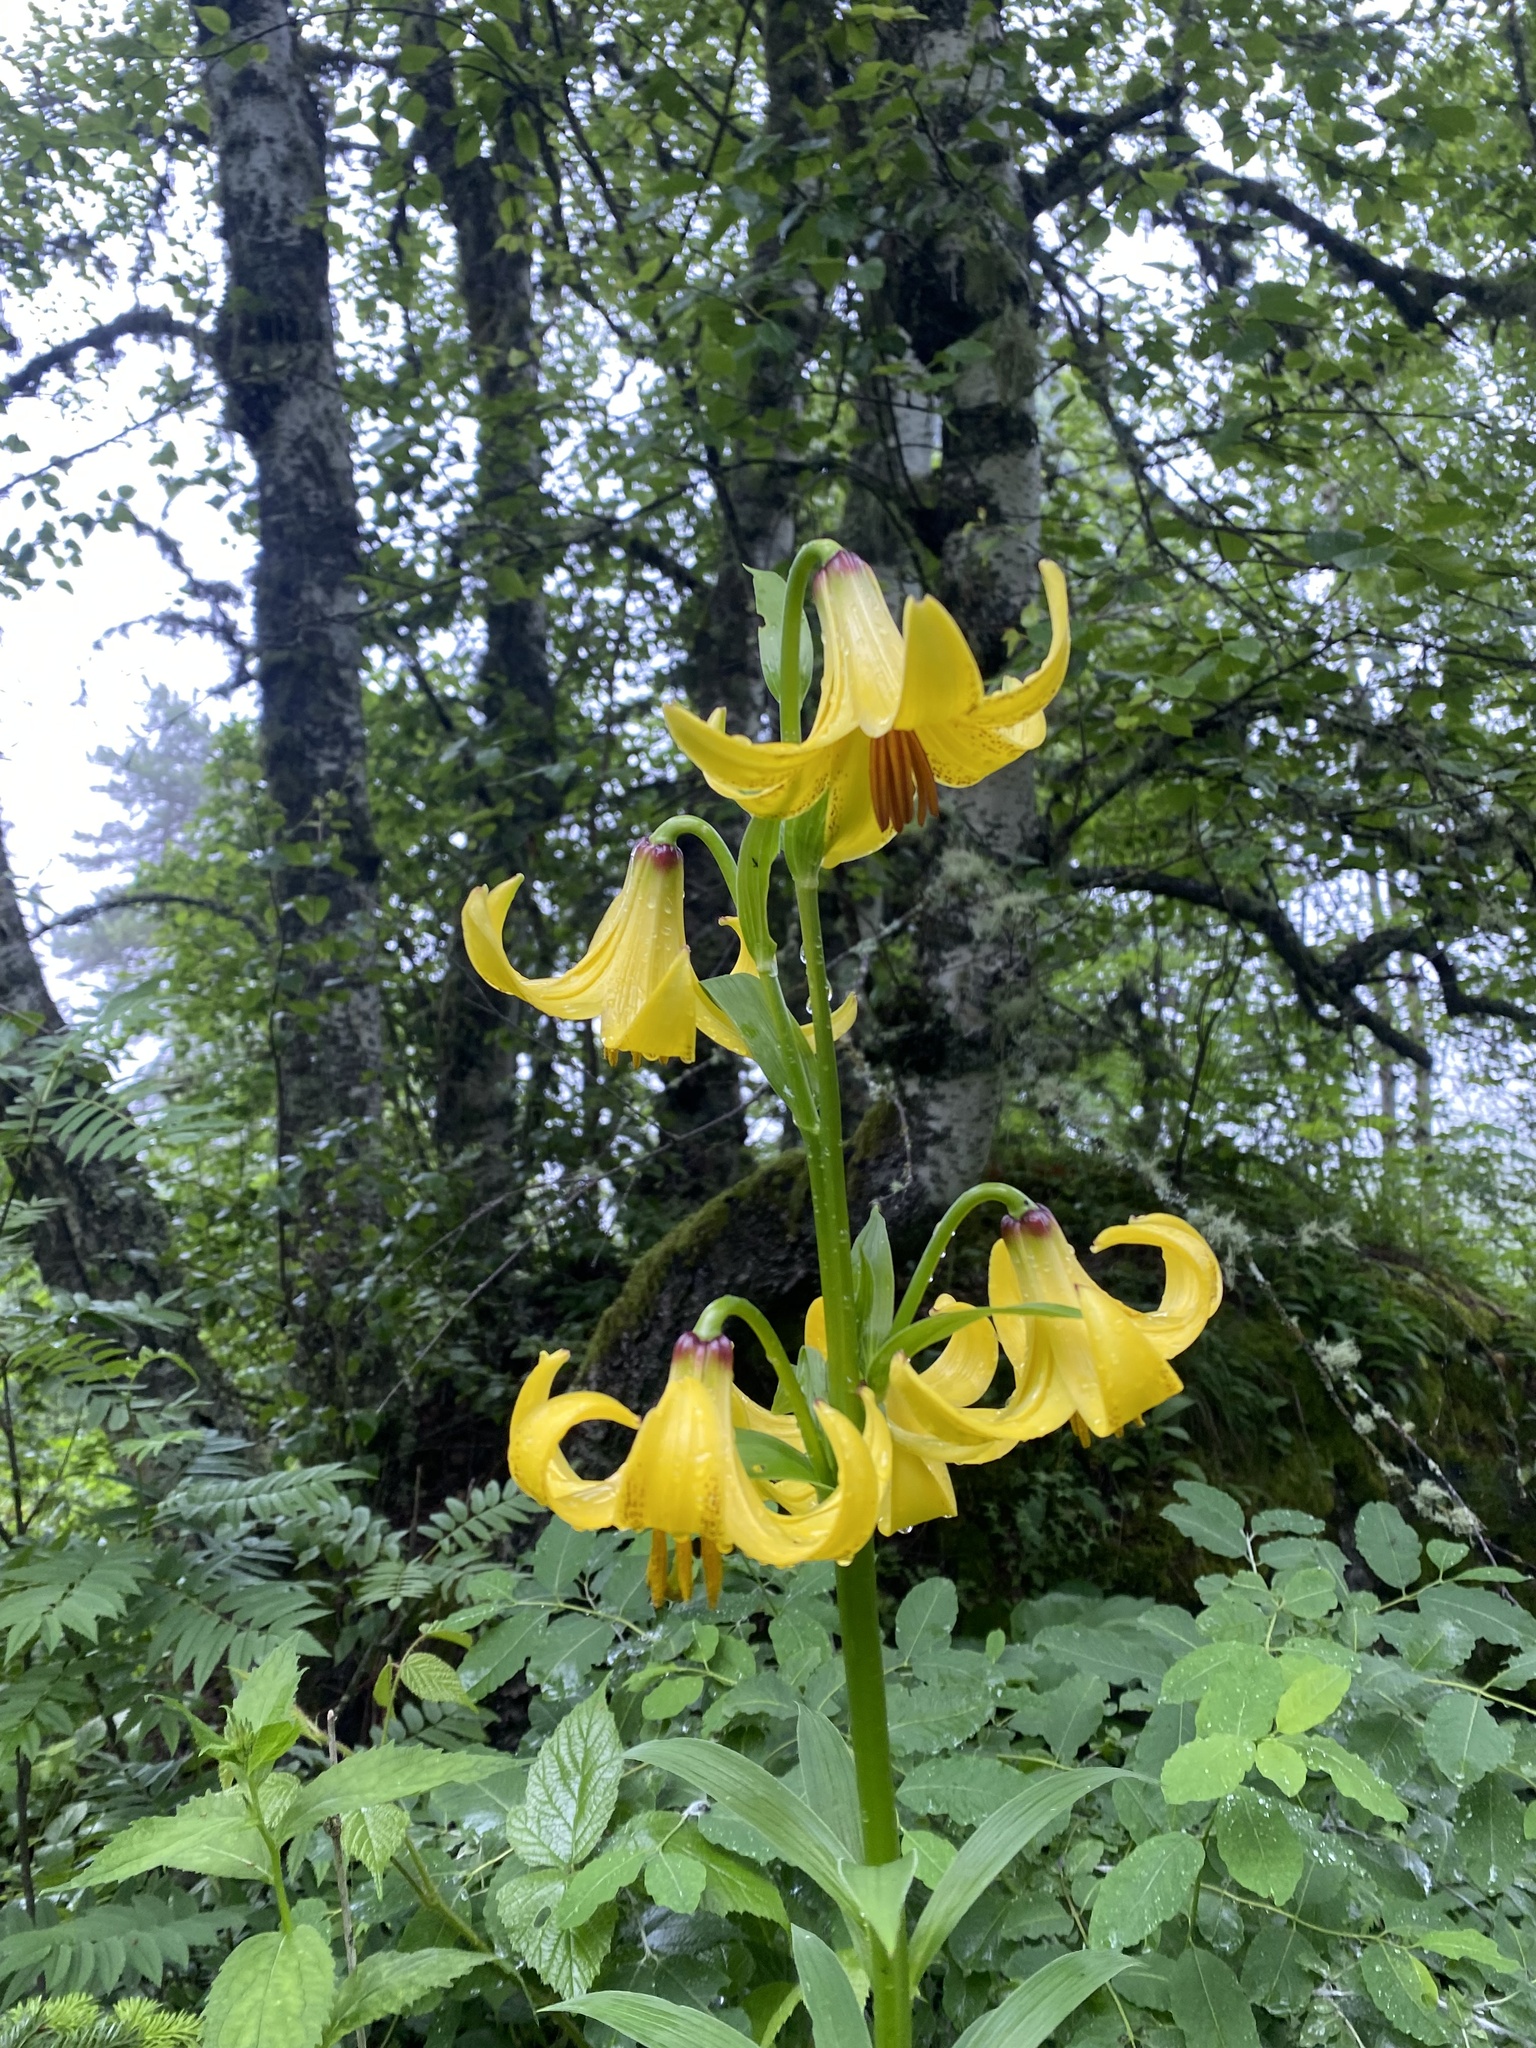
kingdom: Plantae
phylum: Tracheophyta
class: Liliopsida
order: Liliales
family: Liliaceae
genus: Lilium
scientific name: Lilium monadelphum
